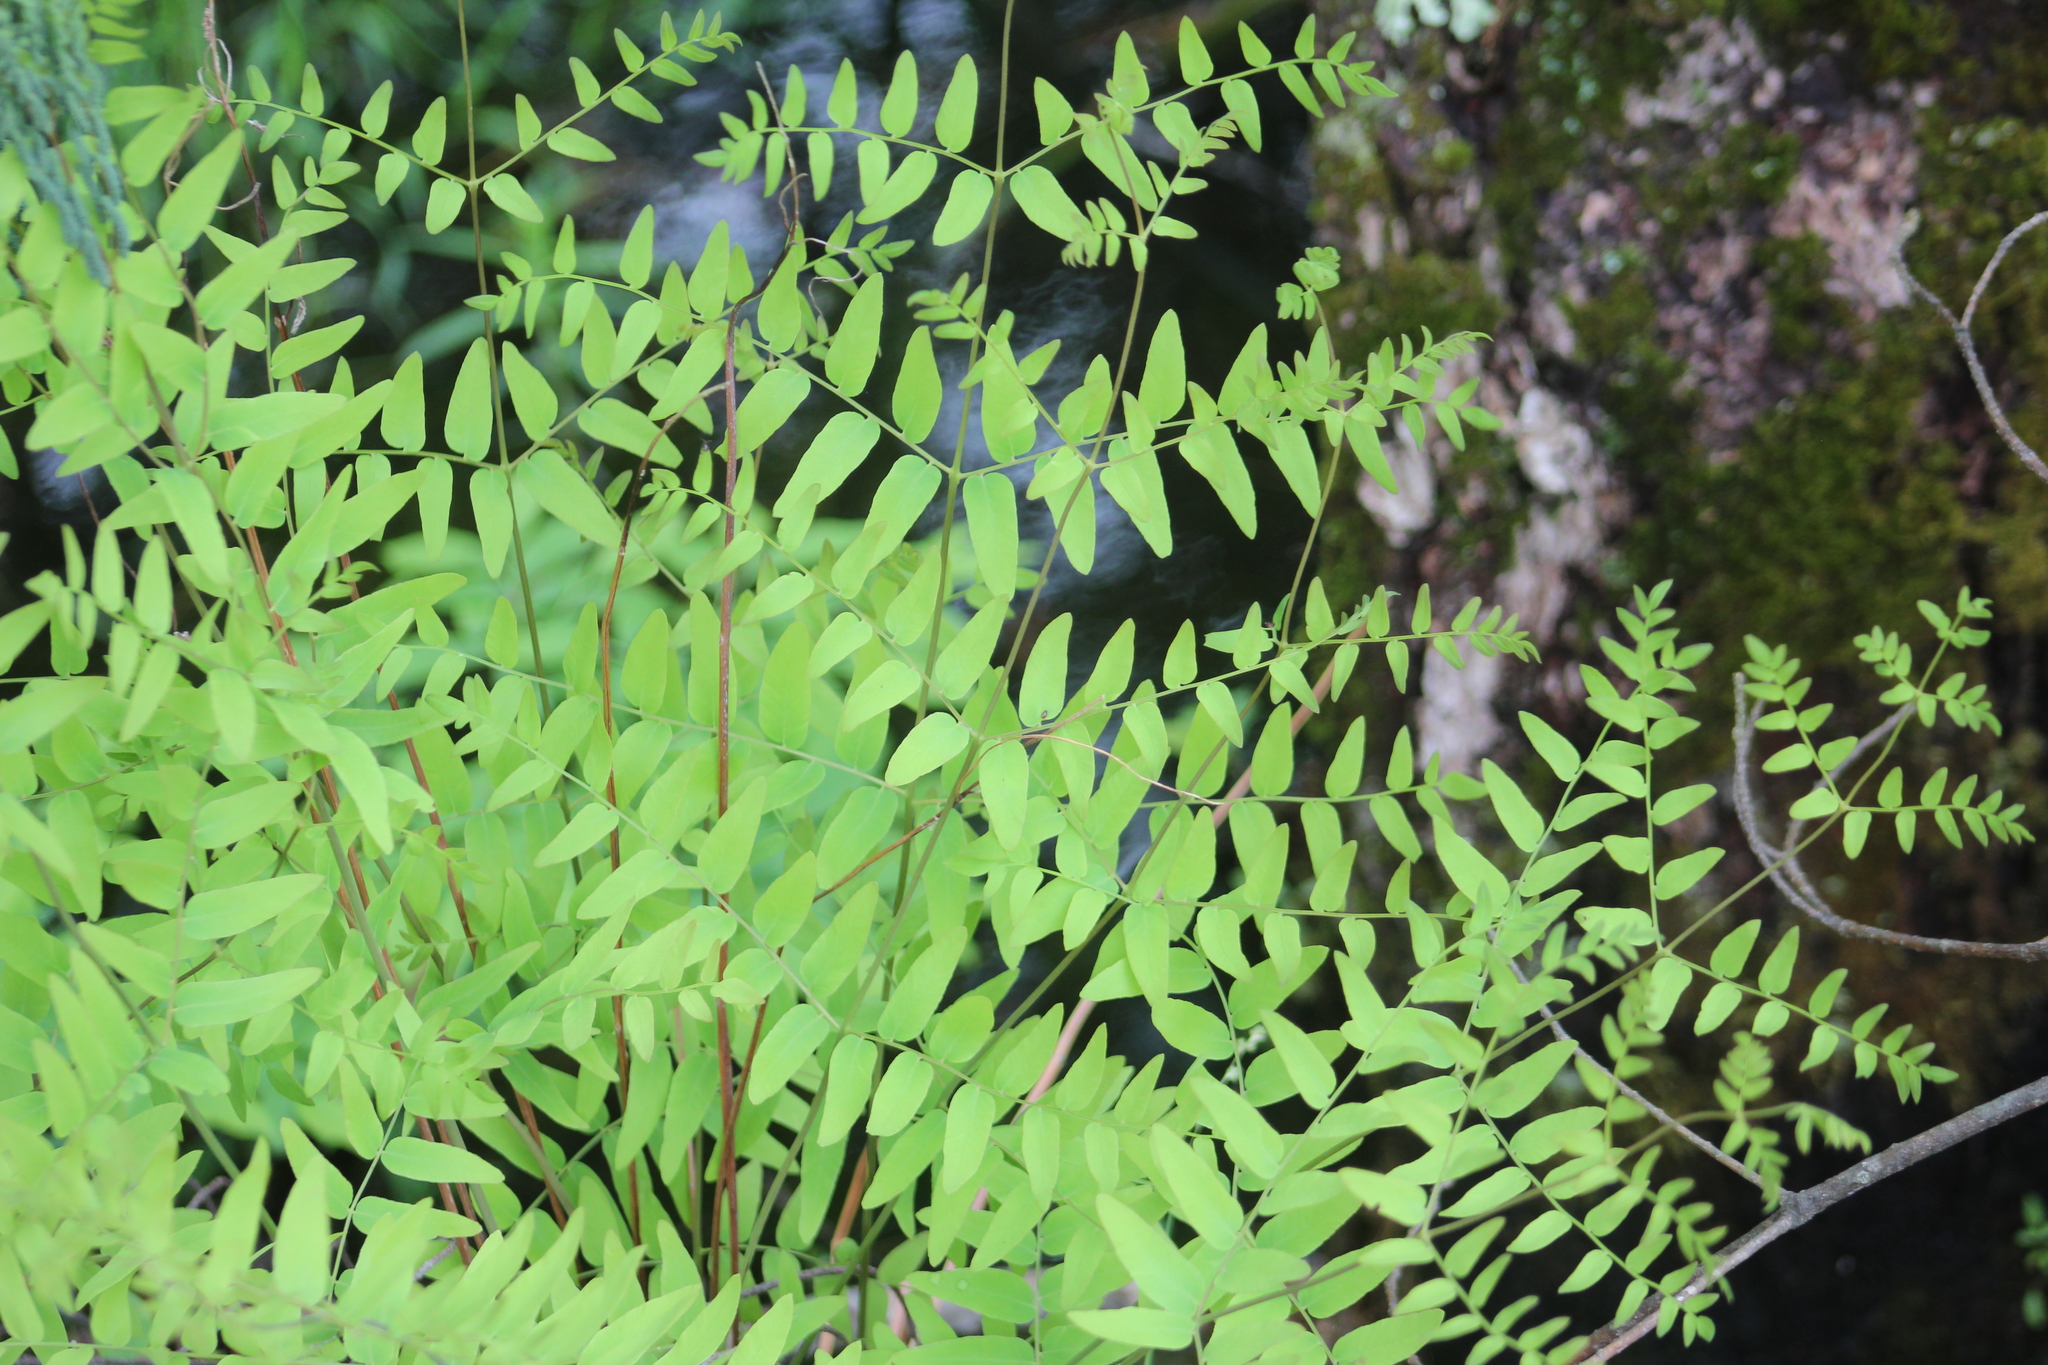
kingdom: Plantae
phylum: Tracheophyta
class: Polypodiopsida
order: Osmundales
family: Osmundaceae
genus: Osmunda
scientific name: Osmunda spectabilis
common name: American royal fern
